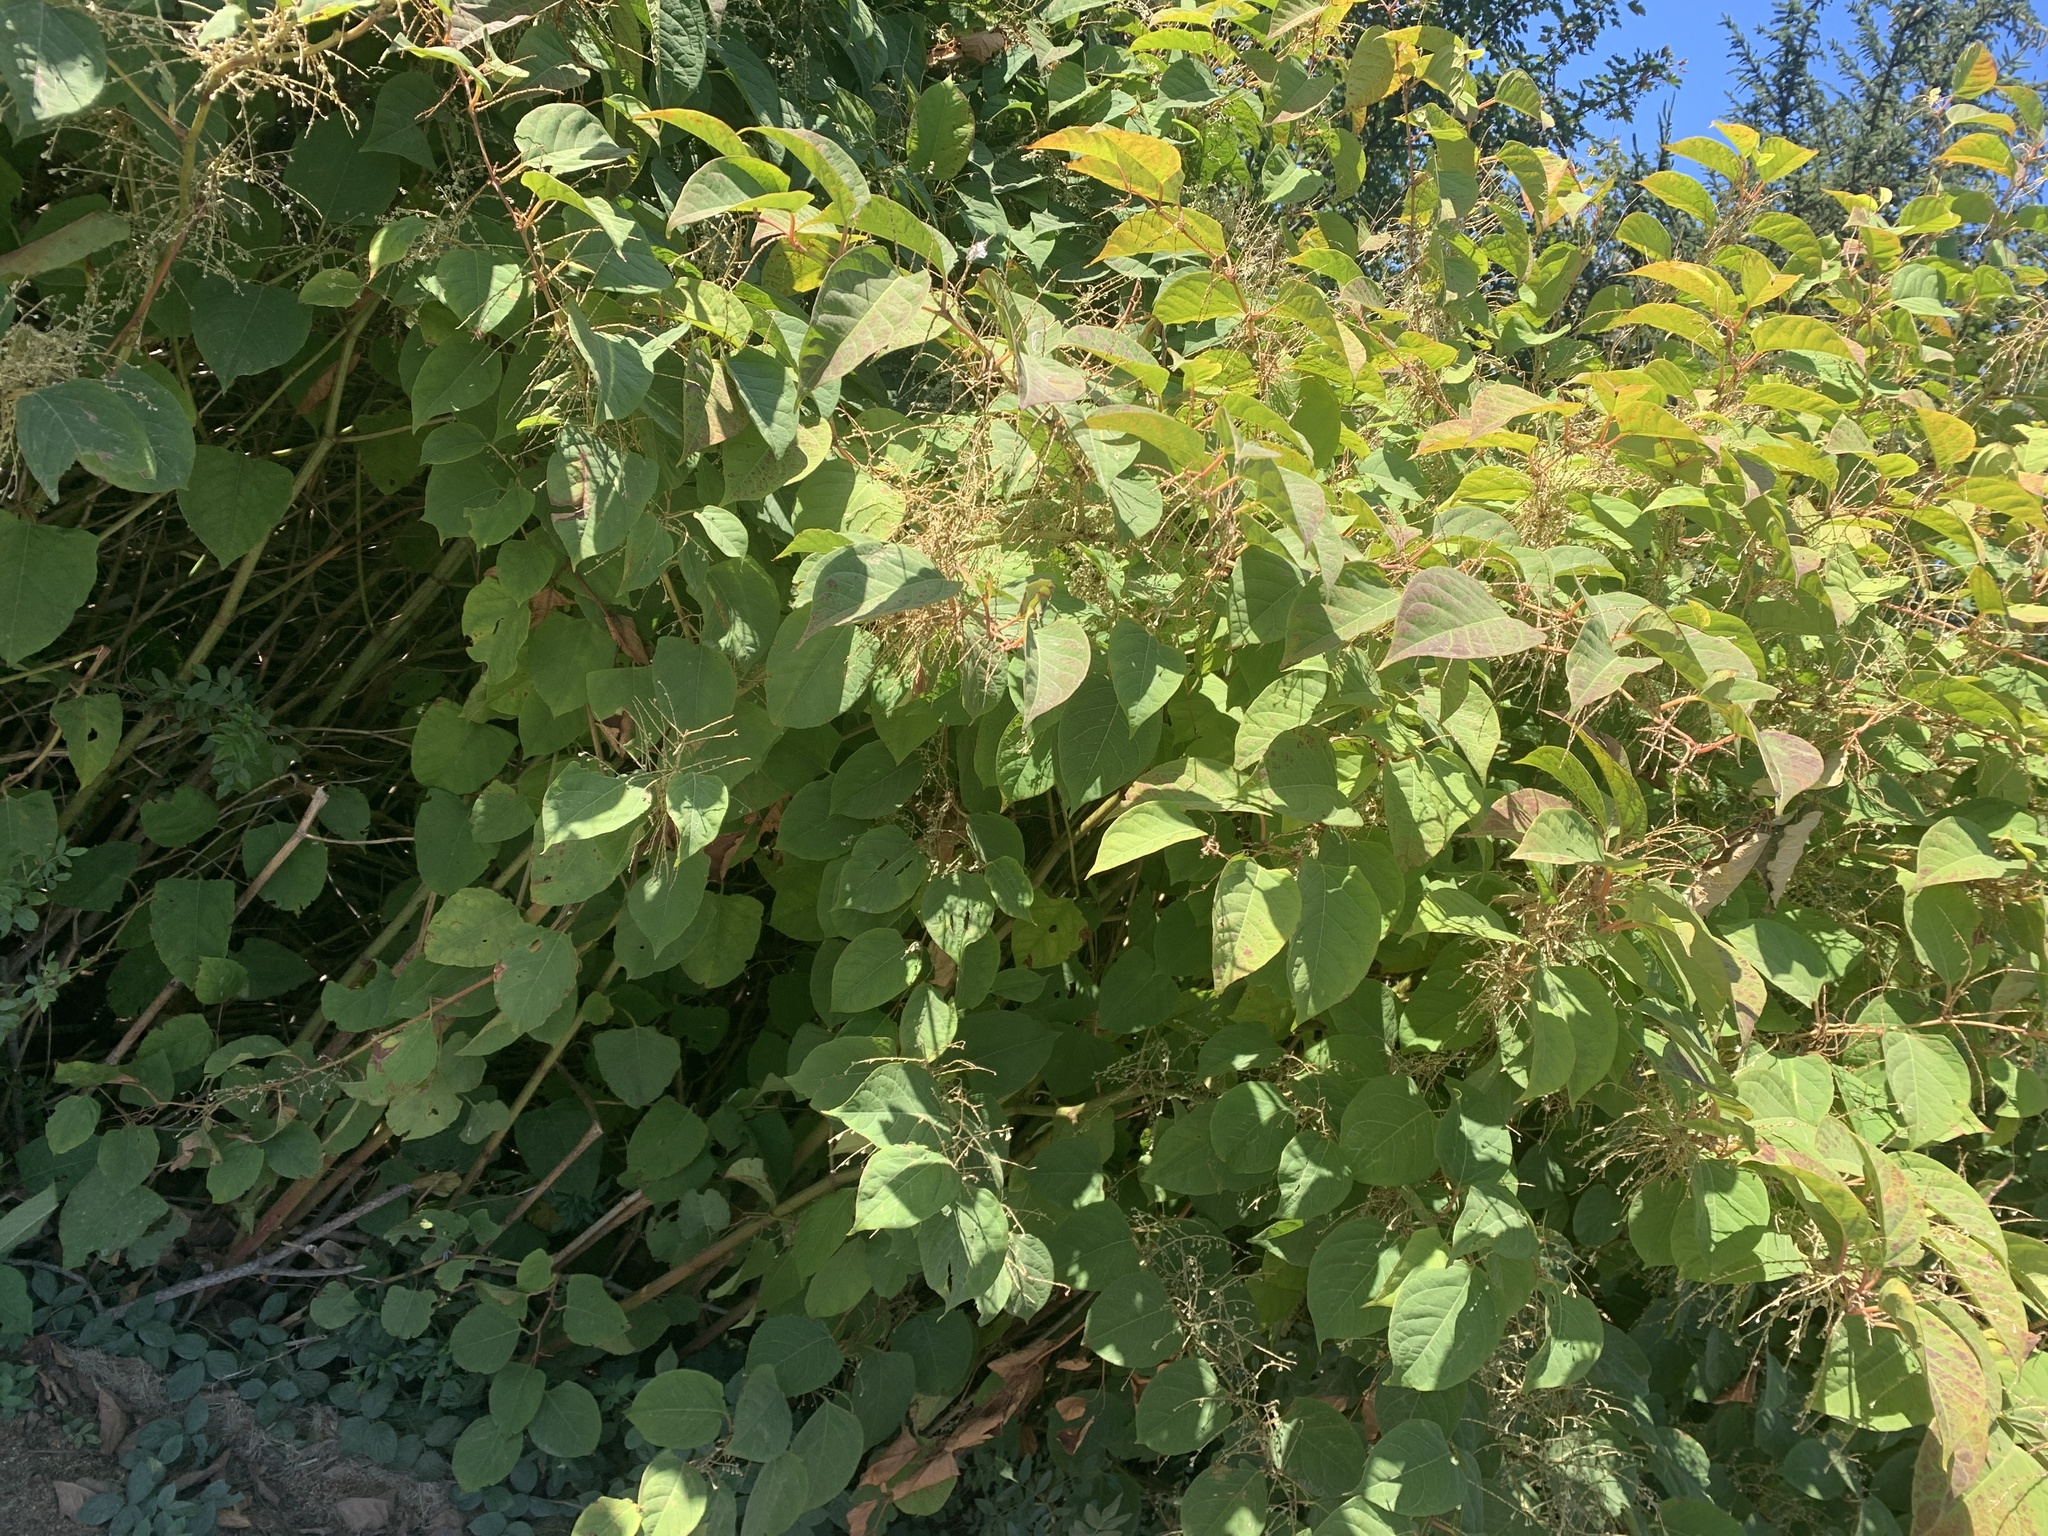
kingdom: Plantae
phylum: Tracheophyta
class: Magnoliopsida
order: Caryophyllales
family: Polygonaceae
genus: Reynoutria
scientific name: Reynoutria japonica
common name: Japanese knotweed
